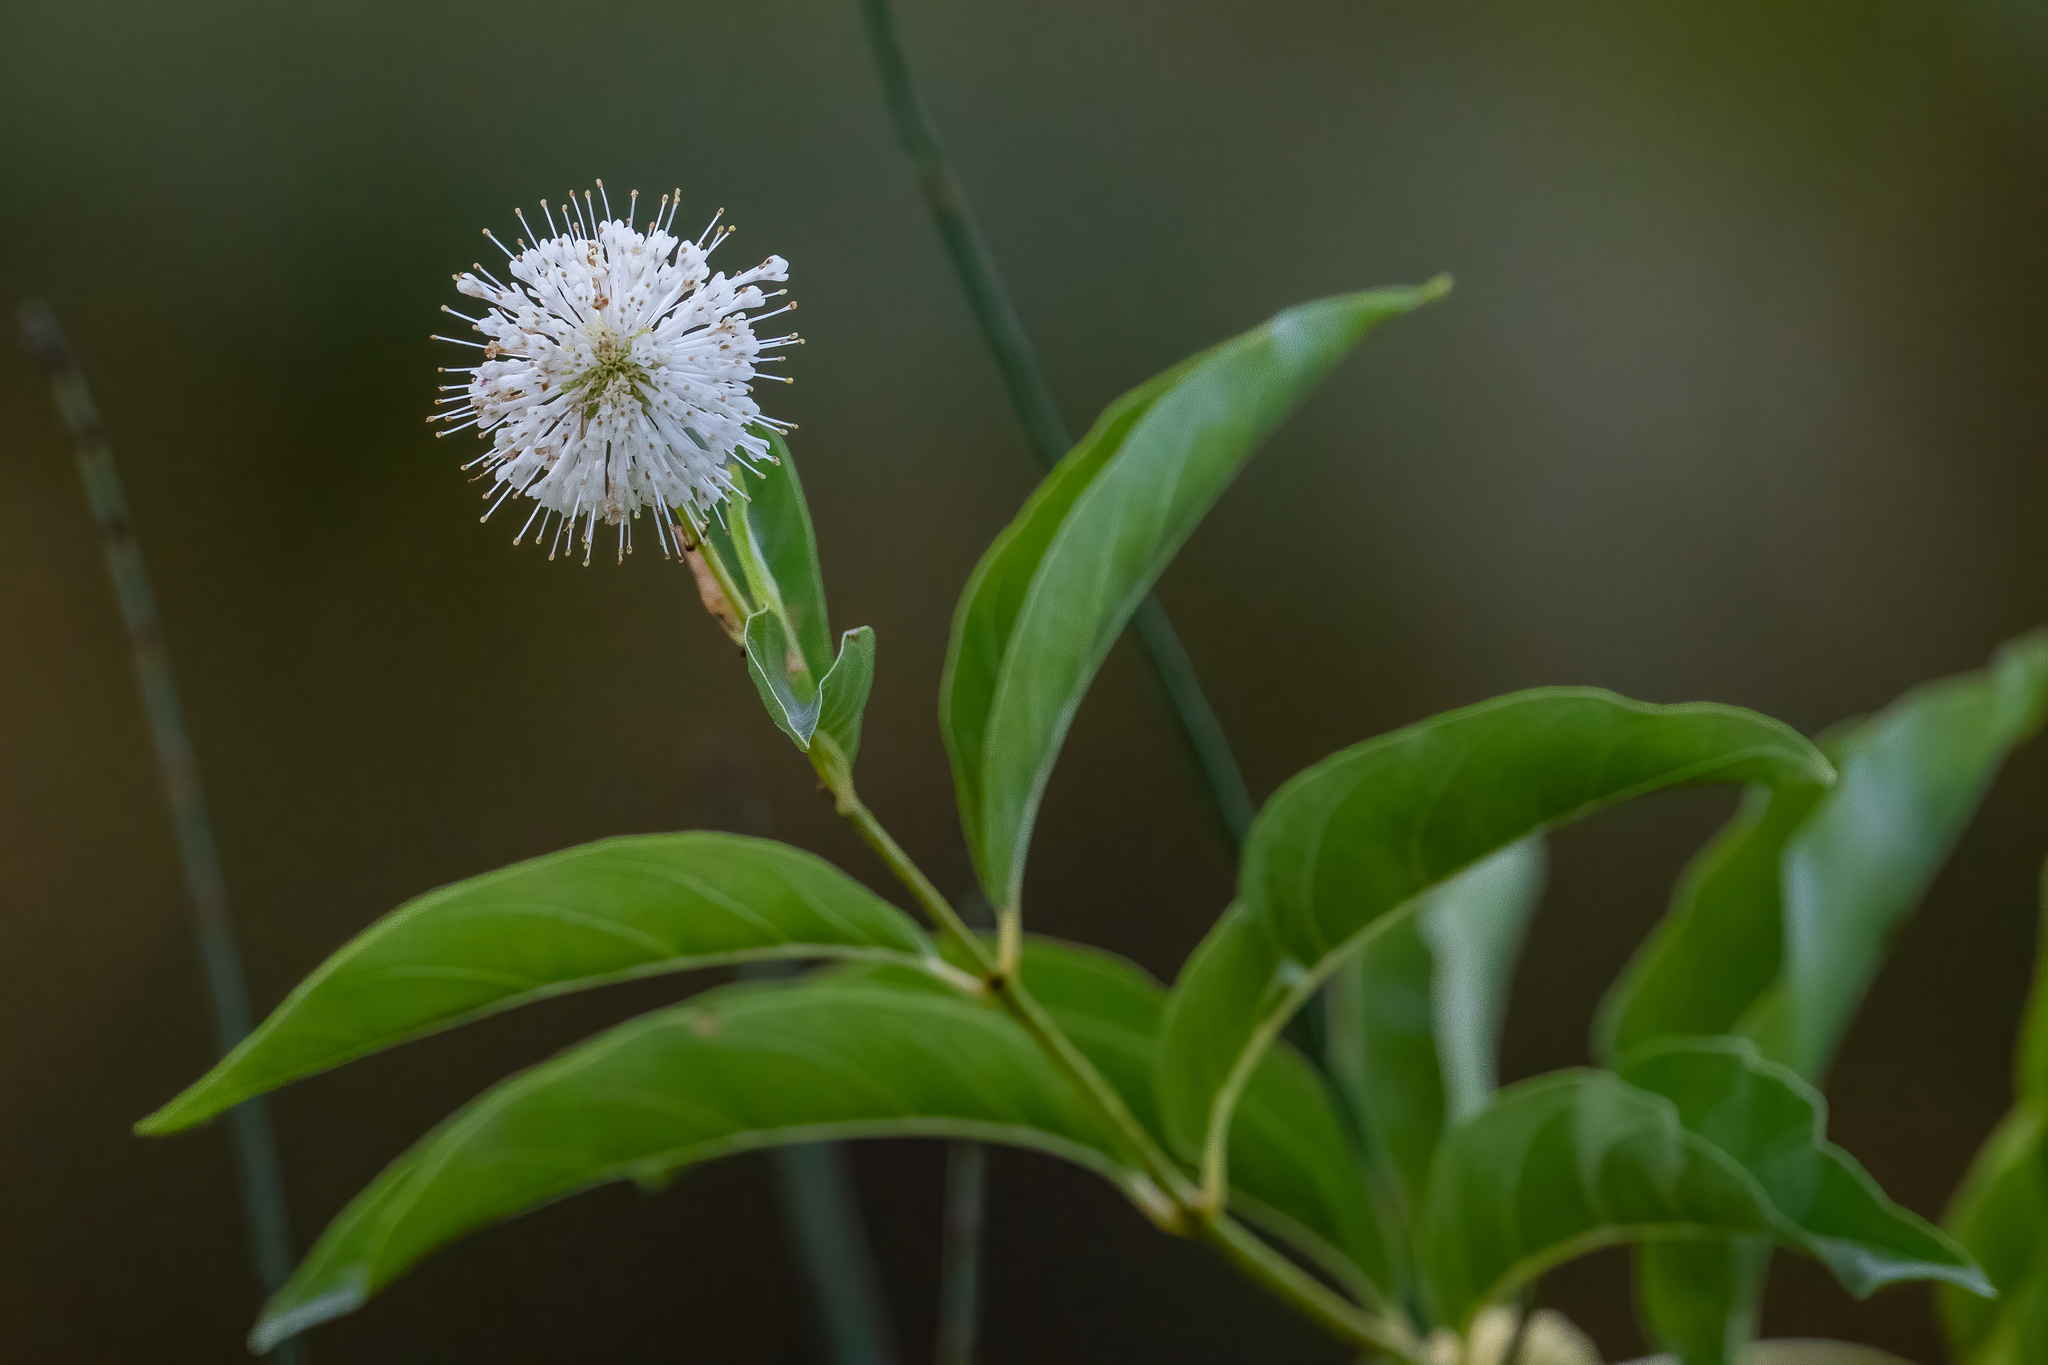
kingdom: Plantae
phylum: Tracheophyta
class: Magnoliopsida
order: Gentianales
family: Rubiaceae
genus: Cephalanthus
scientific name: Cephalanthus occidentalis
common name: Button-willow
